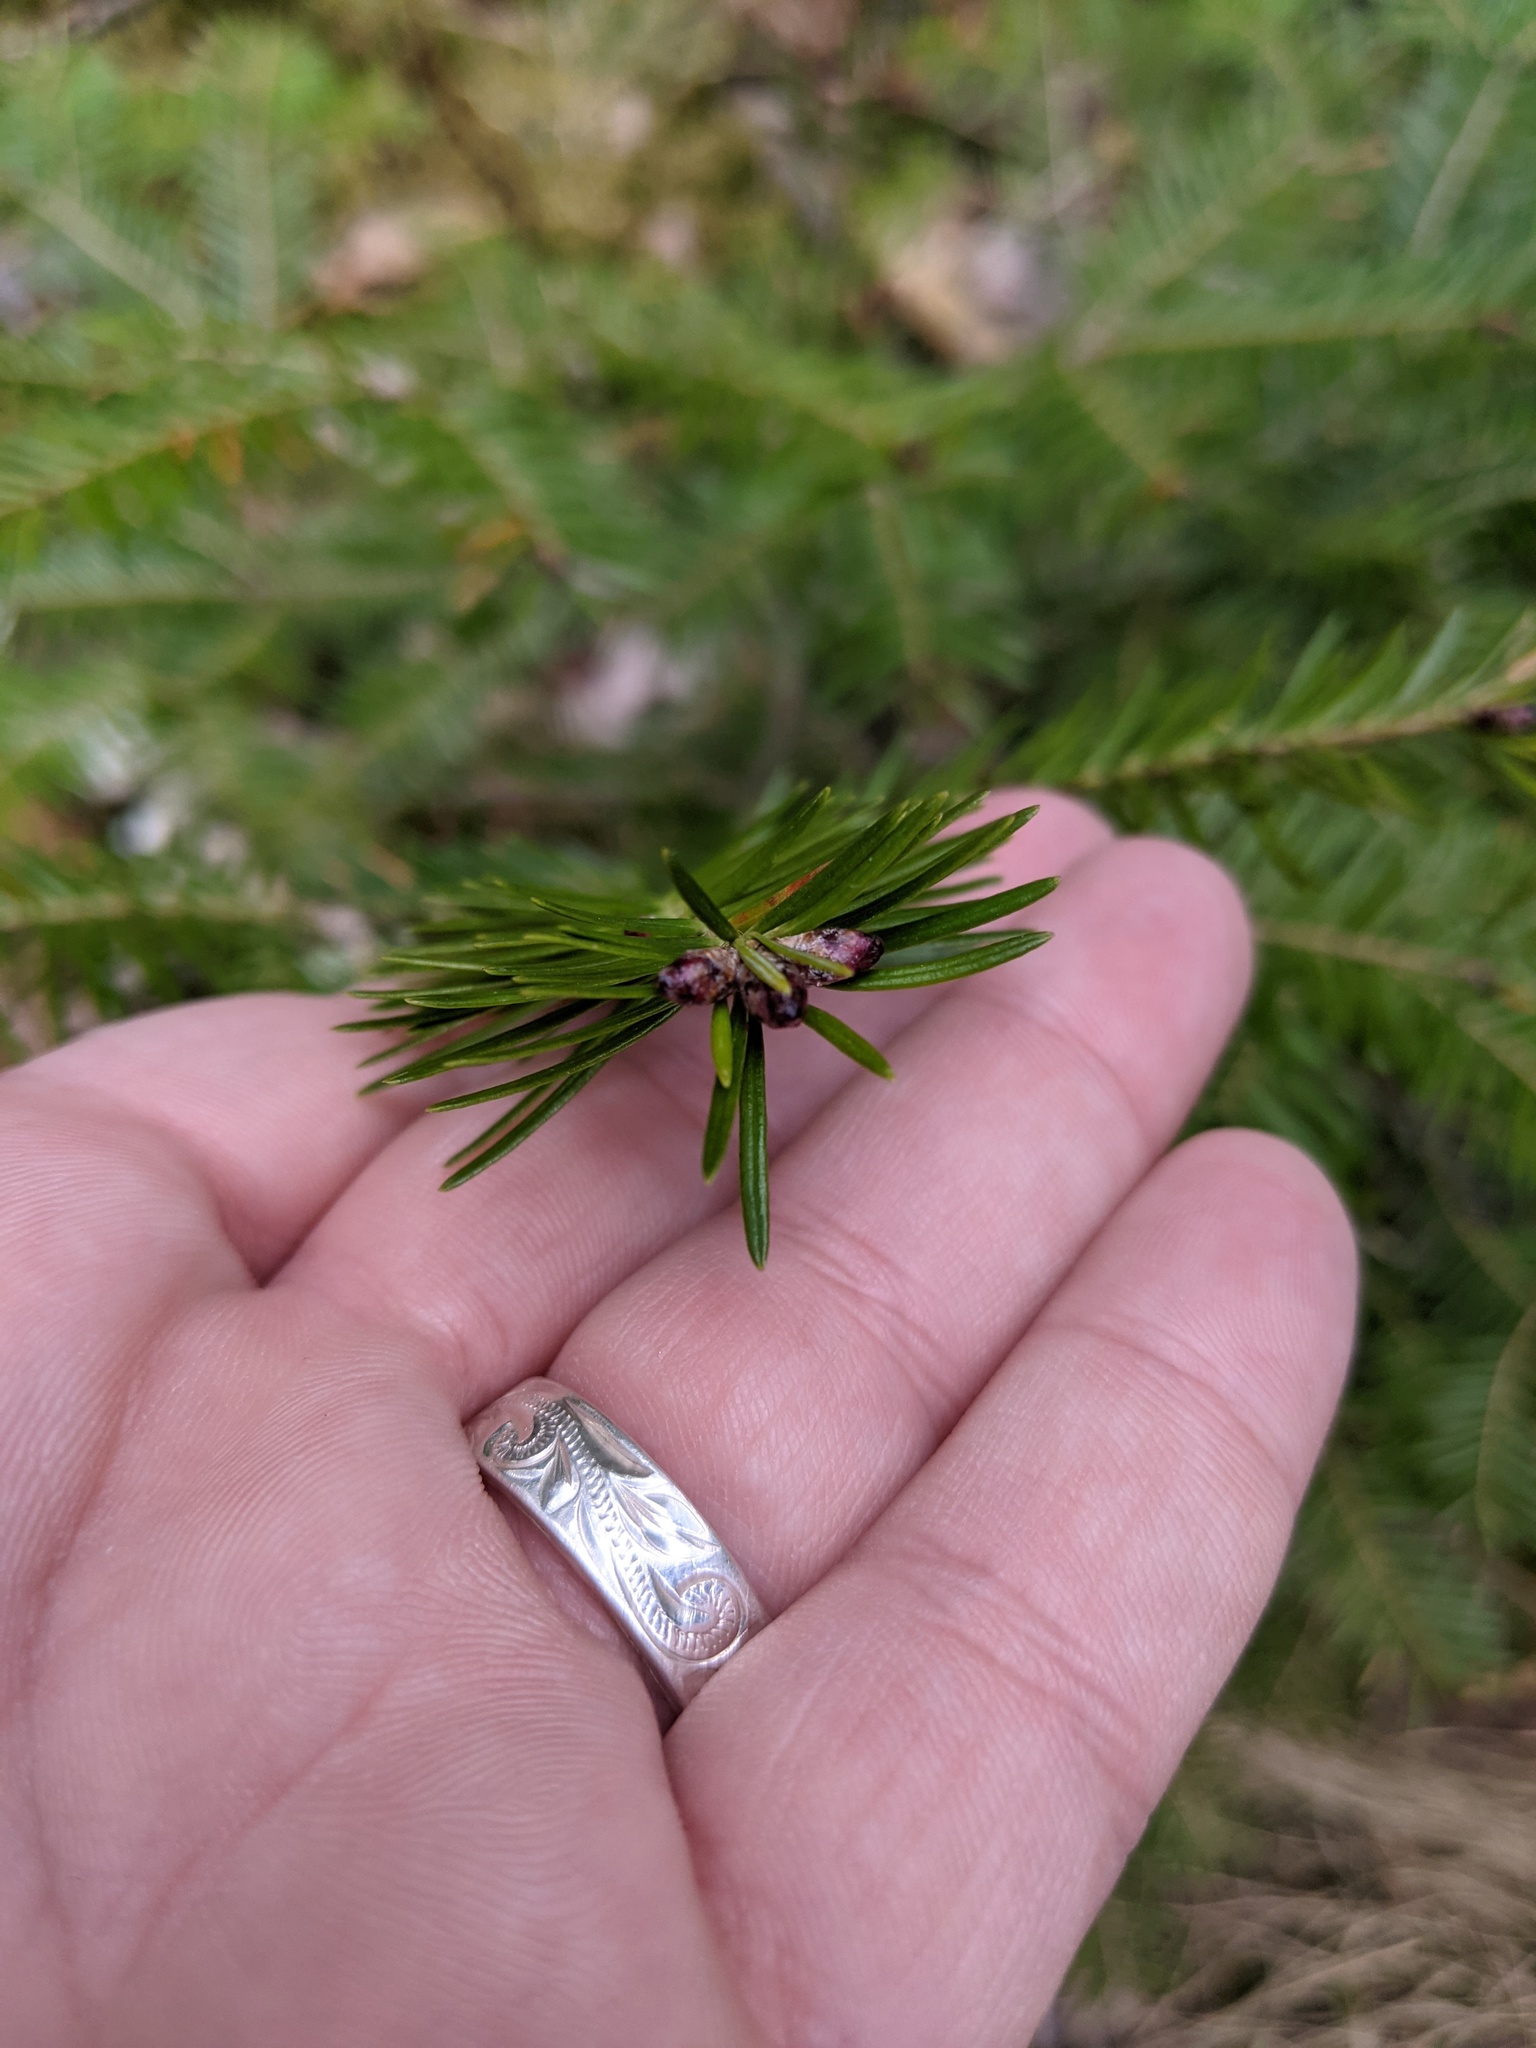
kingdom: Plantae
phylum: Tracheophyta
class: Pinopsida
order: Pinales
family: Pinaceae
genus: Abies
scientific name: Abies balsamea
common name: Balsam fir
